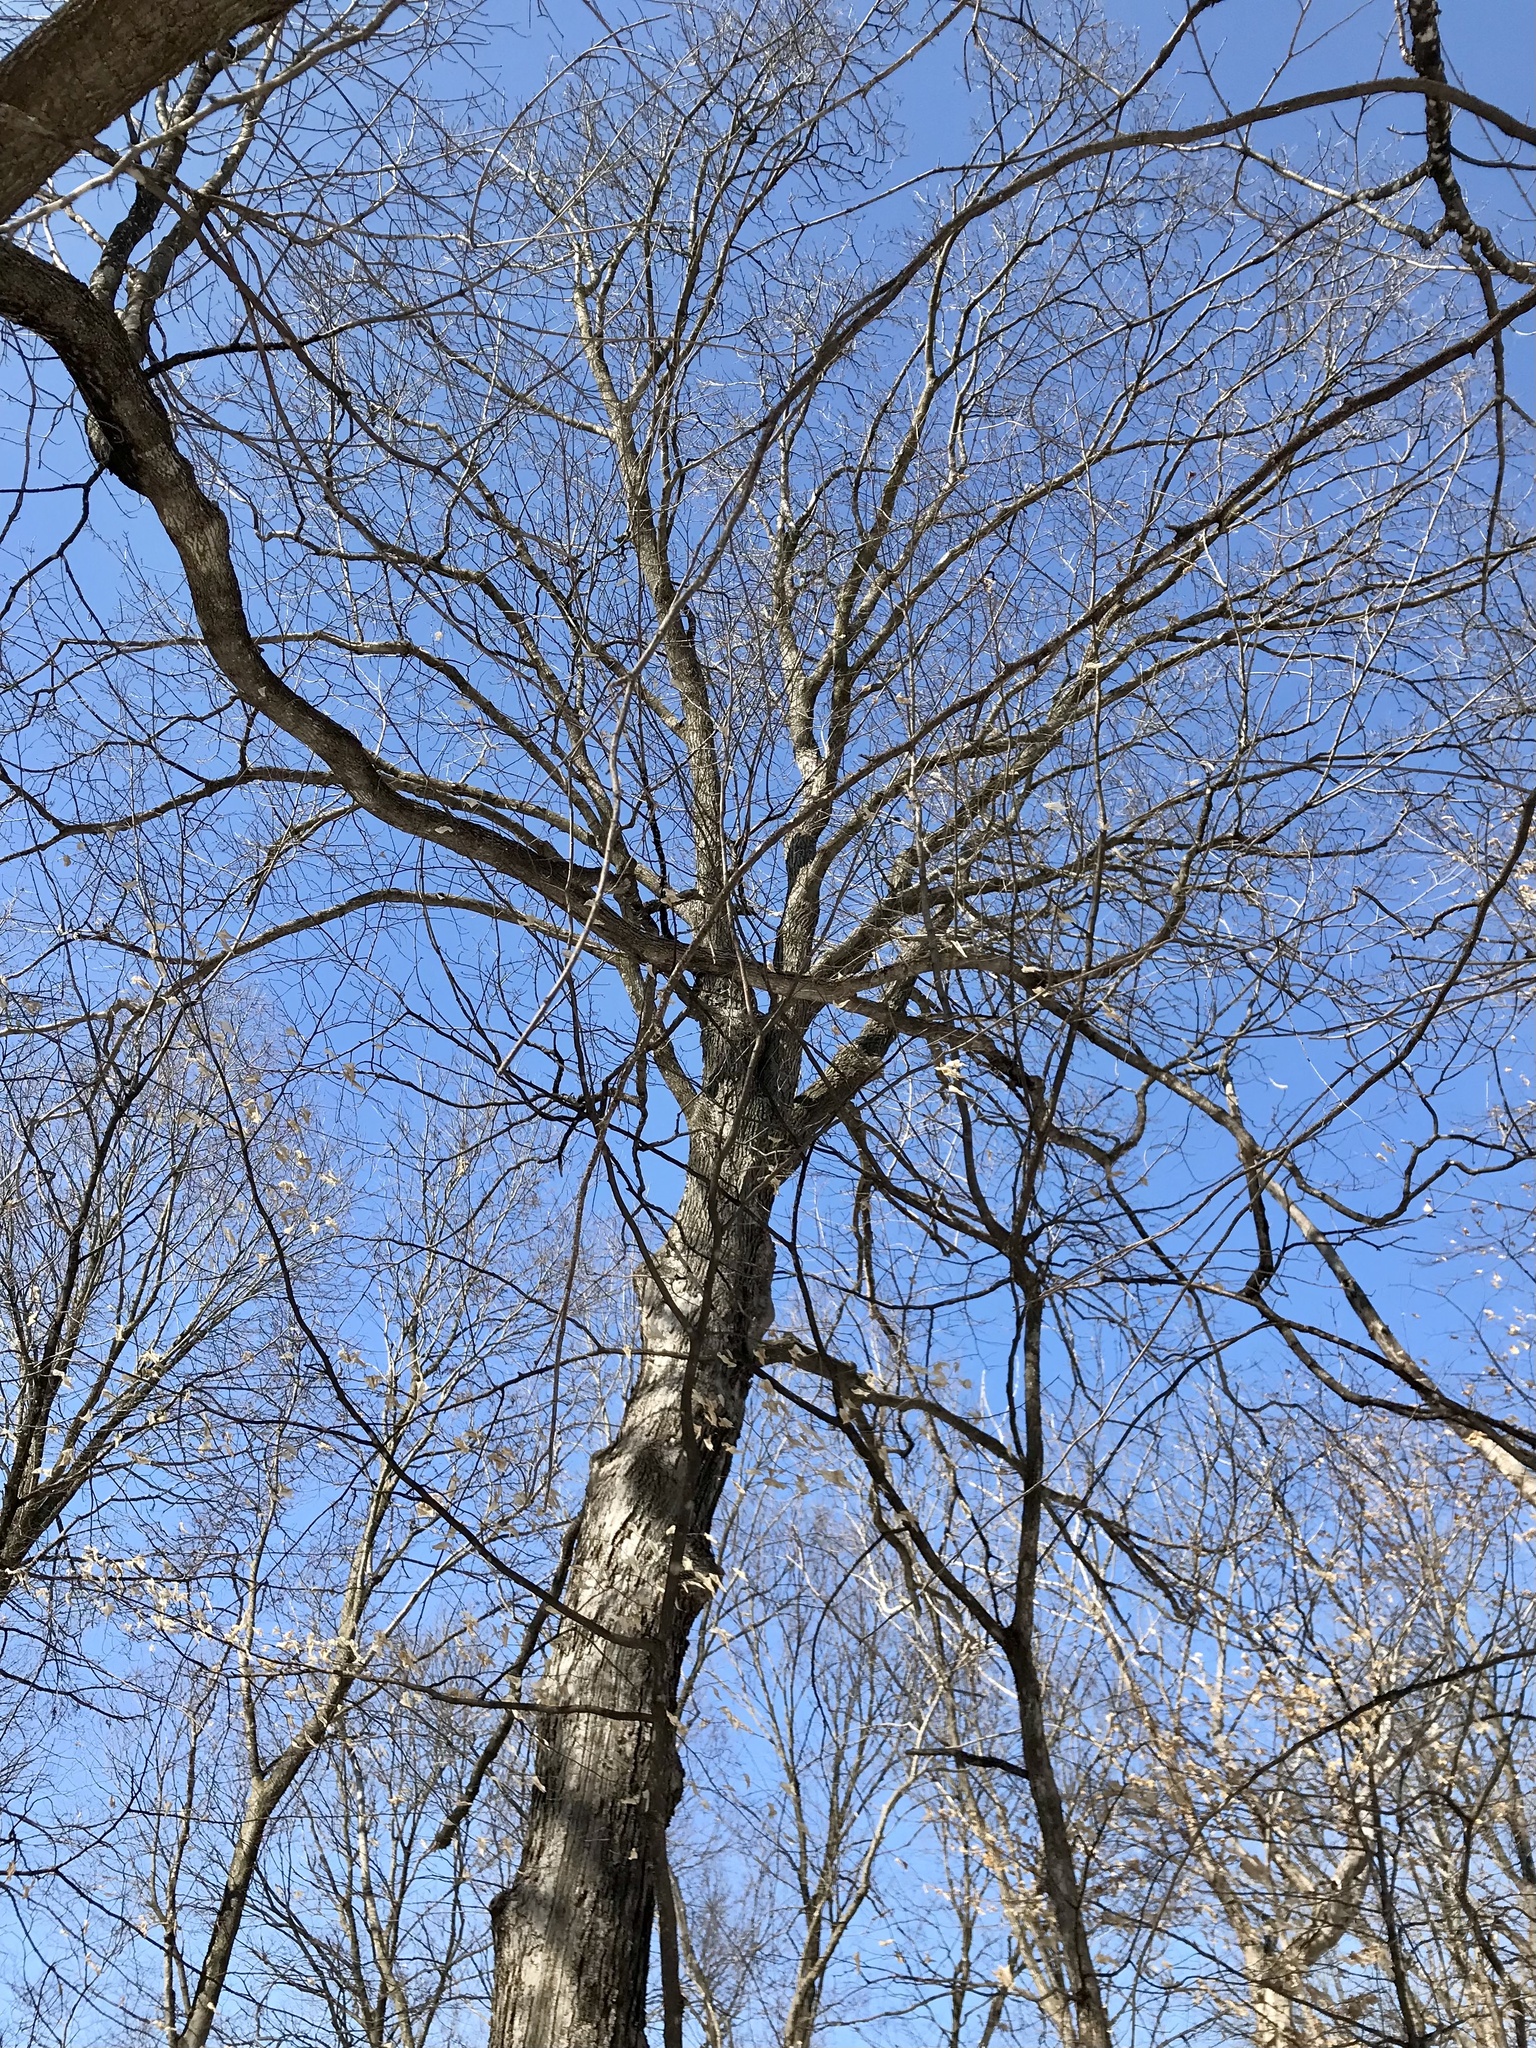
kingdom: Plantae
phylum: Tracheophyta
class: Magnoliopsida
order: Sapindales
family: Sapindaceae
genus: Acer
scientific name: Acer saccharum
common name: Sugar maple
